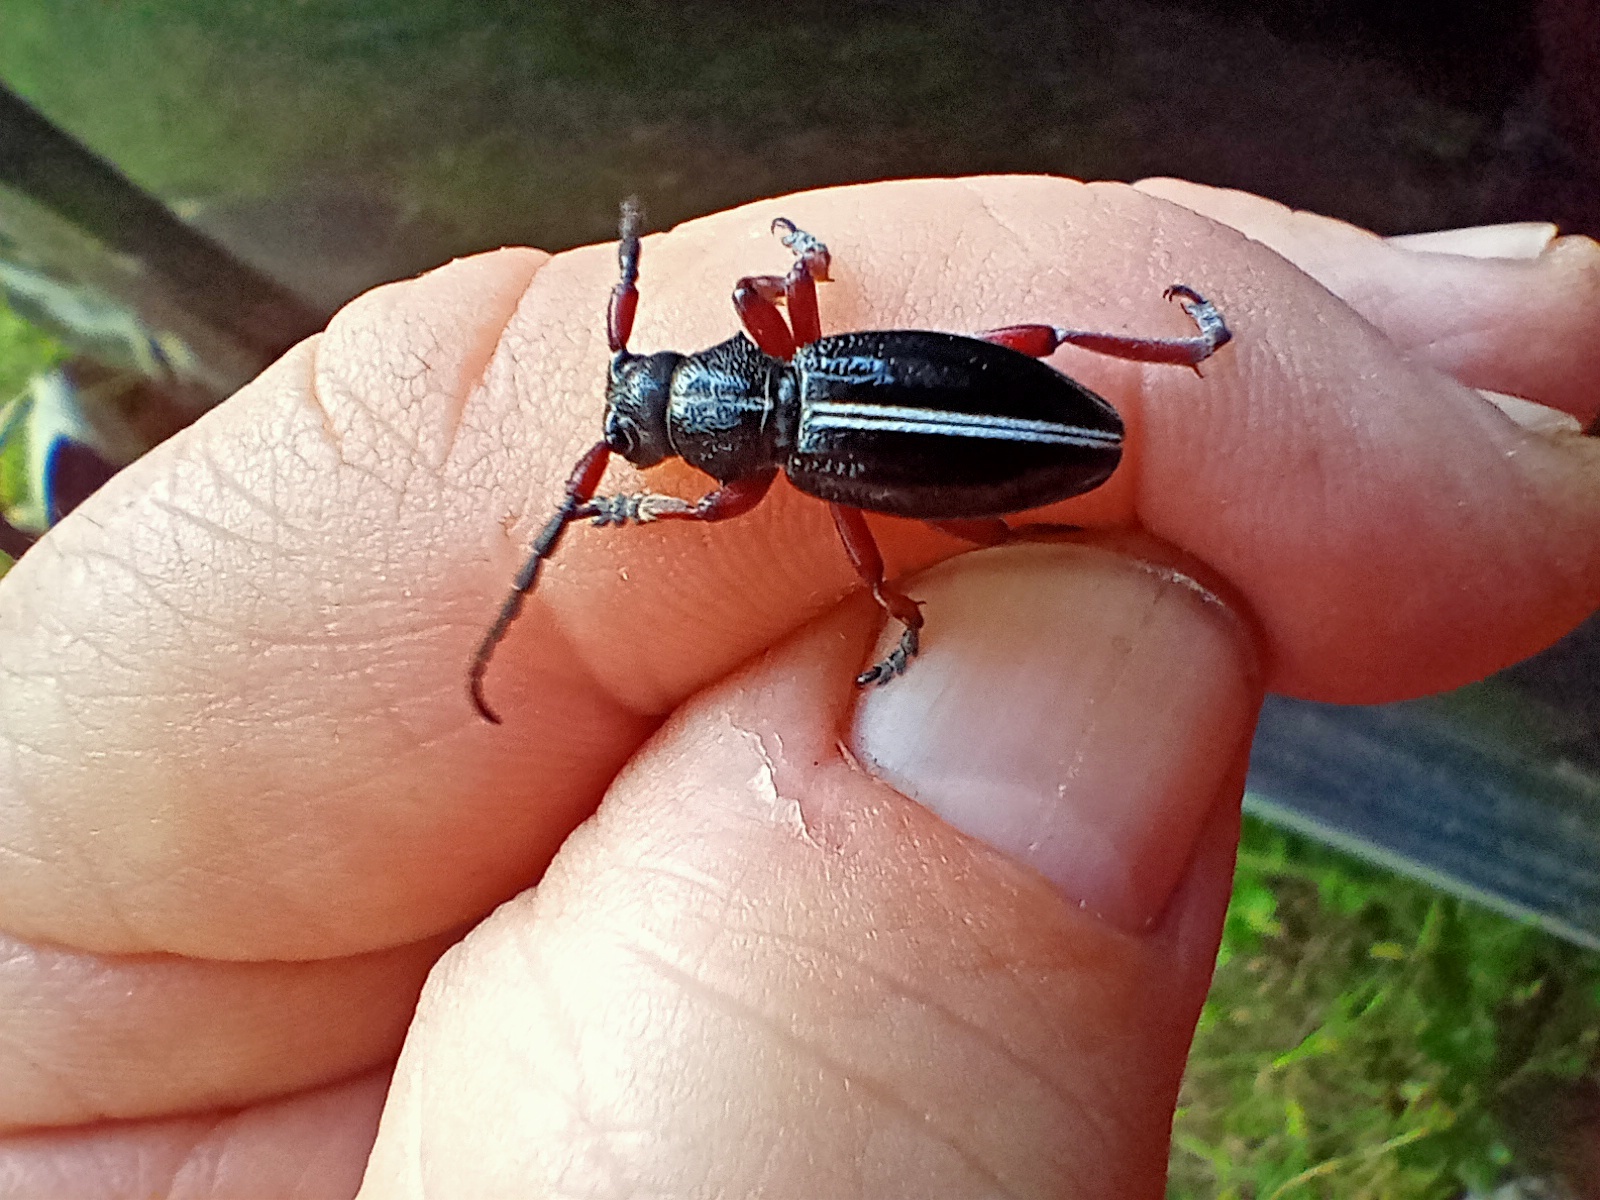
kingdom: Animalia
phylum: Arthropoda
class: Insecta
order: Coleoptera
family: Cerambycidae
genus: Dorcadion
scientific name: Dorcadion pedestre
